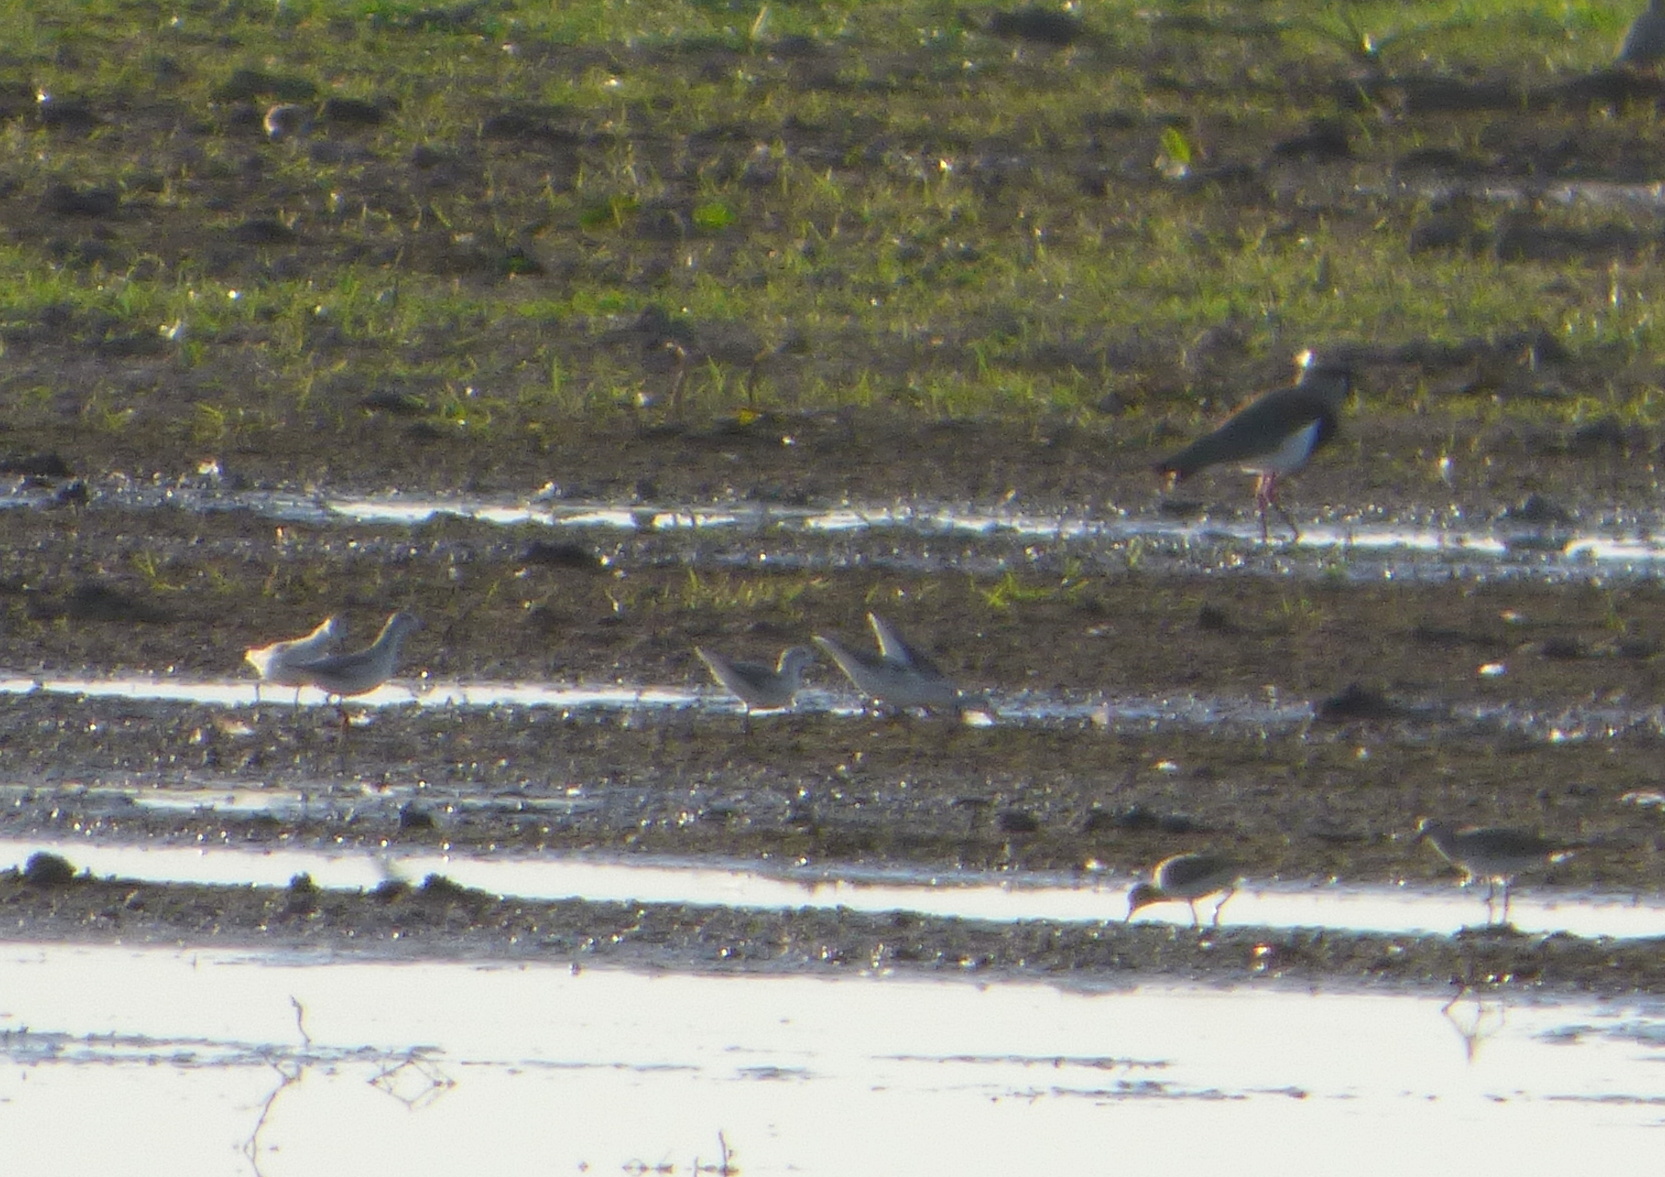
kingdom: Animalia
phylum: Chordata
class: Aves
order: Charadriiformes
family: Scolopacidae
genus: Phalaropus
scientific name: Phalaropus tricolor
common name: Wilson's phalarope
